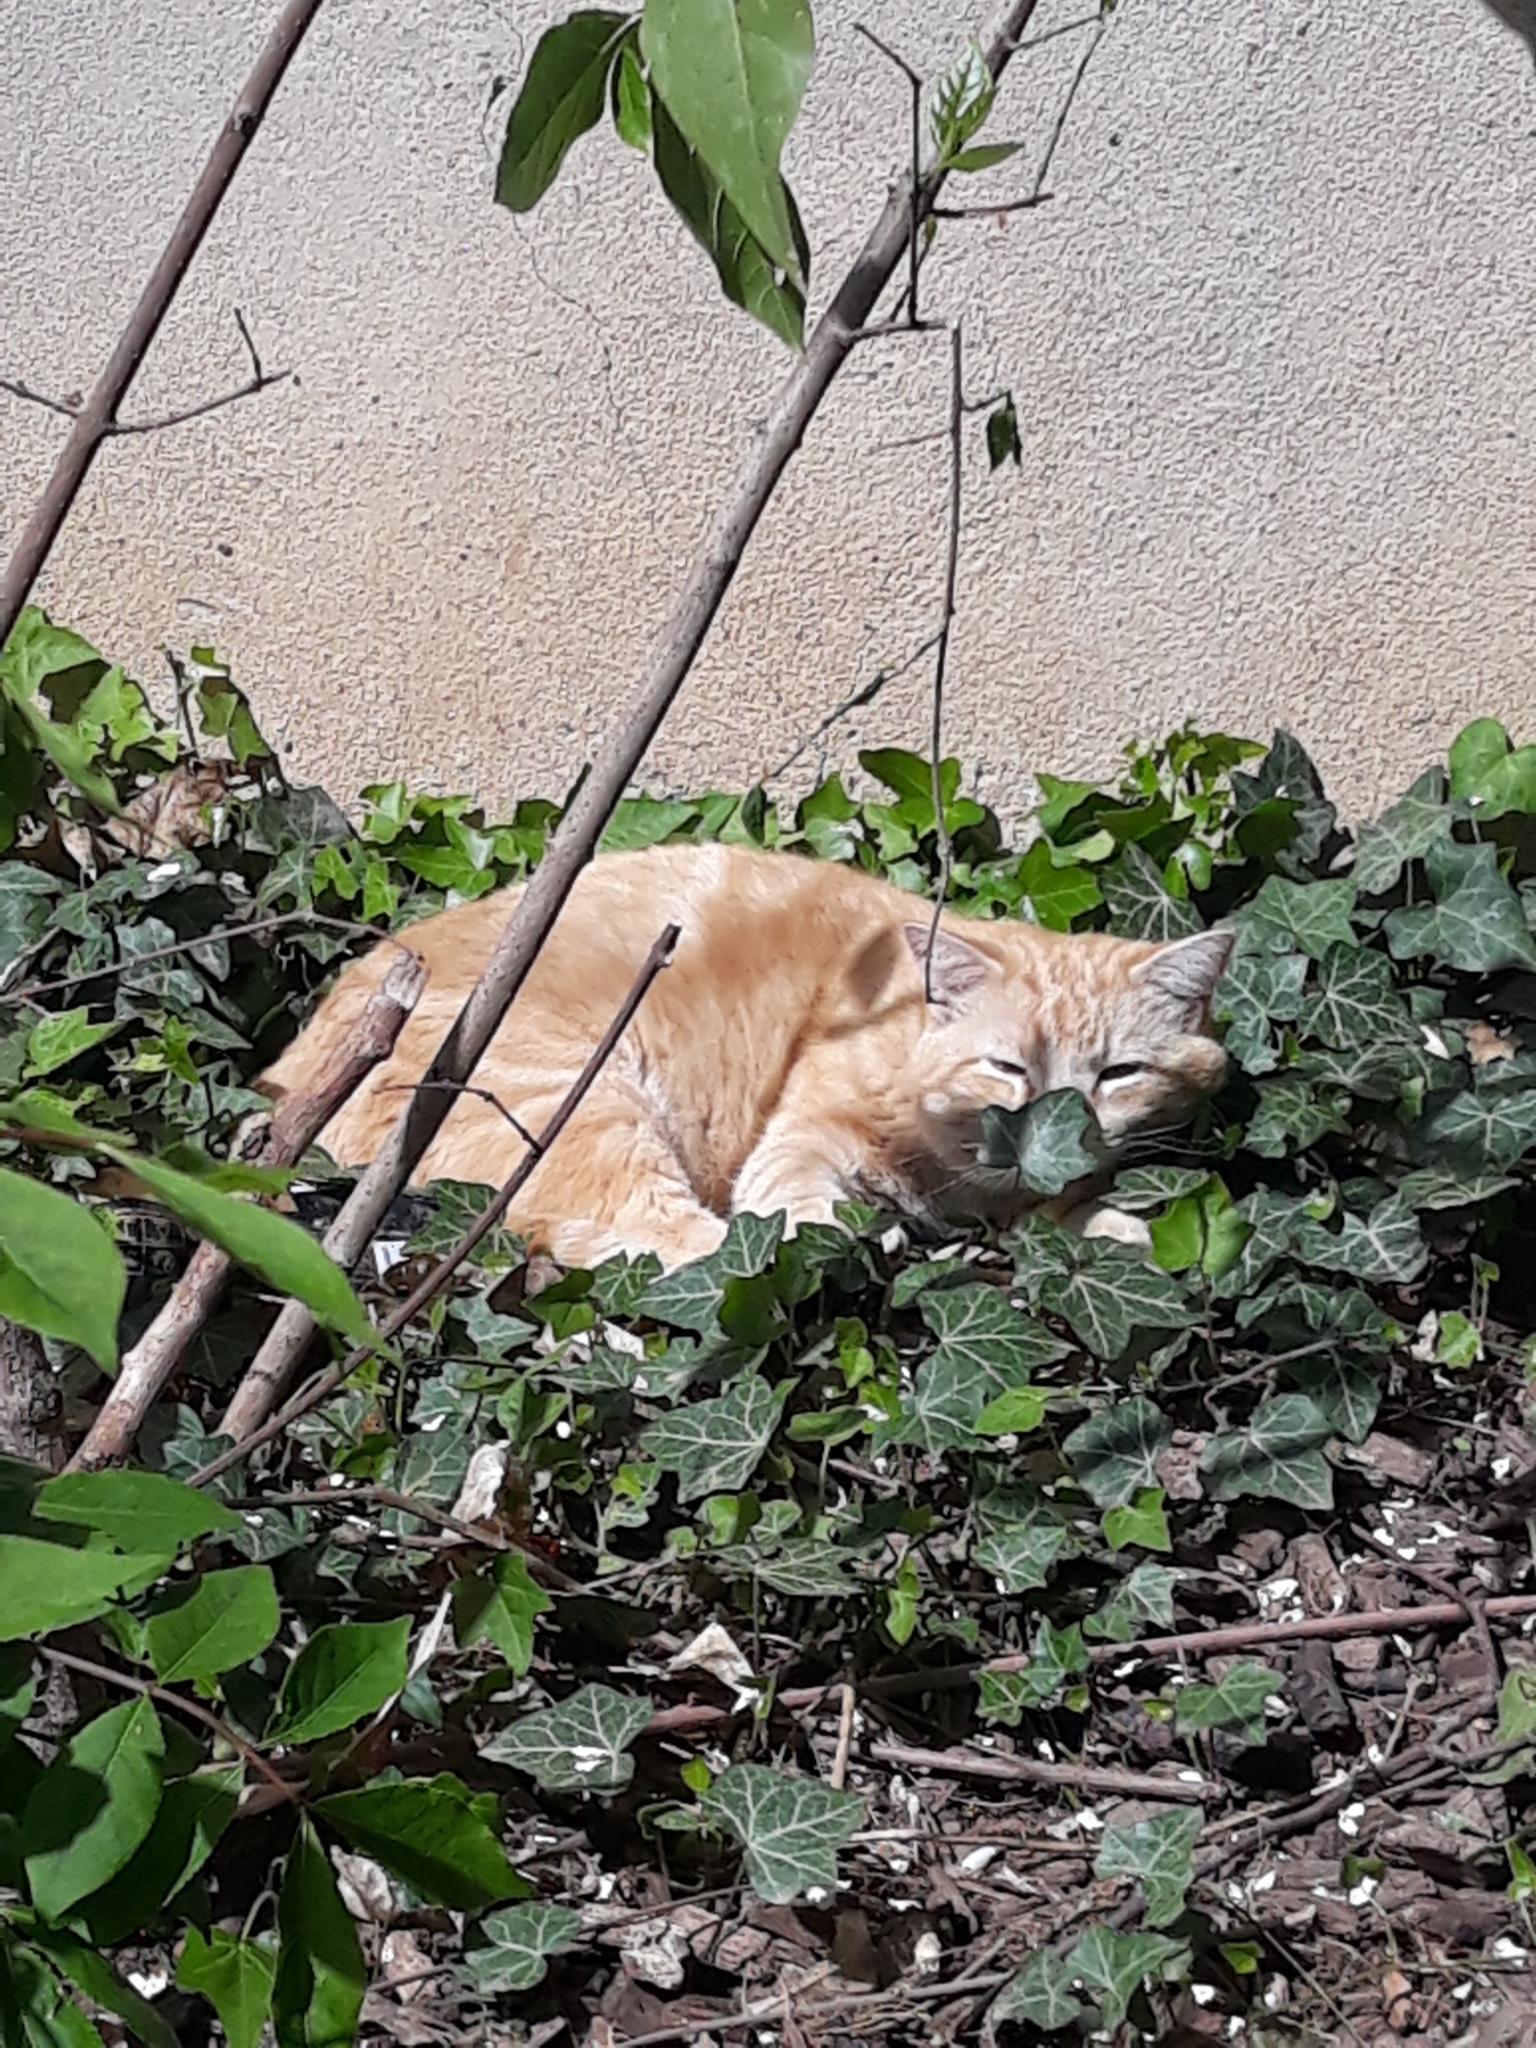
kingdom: Animalia
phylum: Chordata
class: Mammalia
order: Carnivora
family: Felidae
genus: Felis
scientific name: Felis catus
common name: Domestic cat
